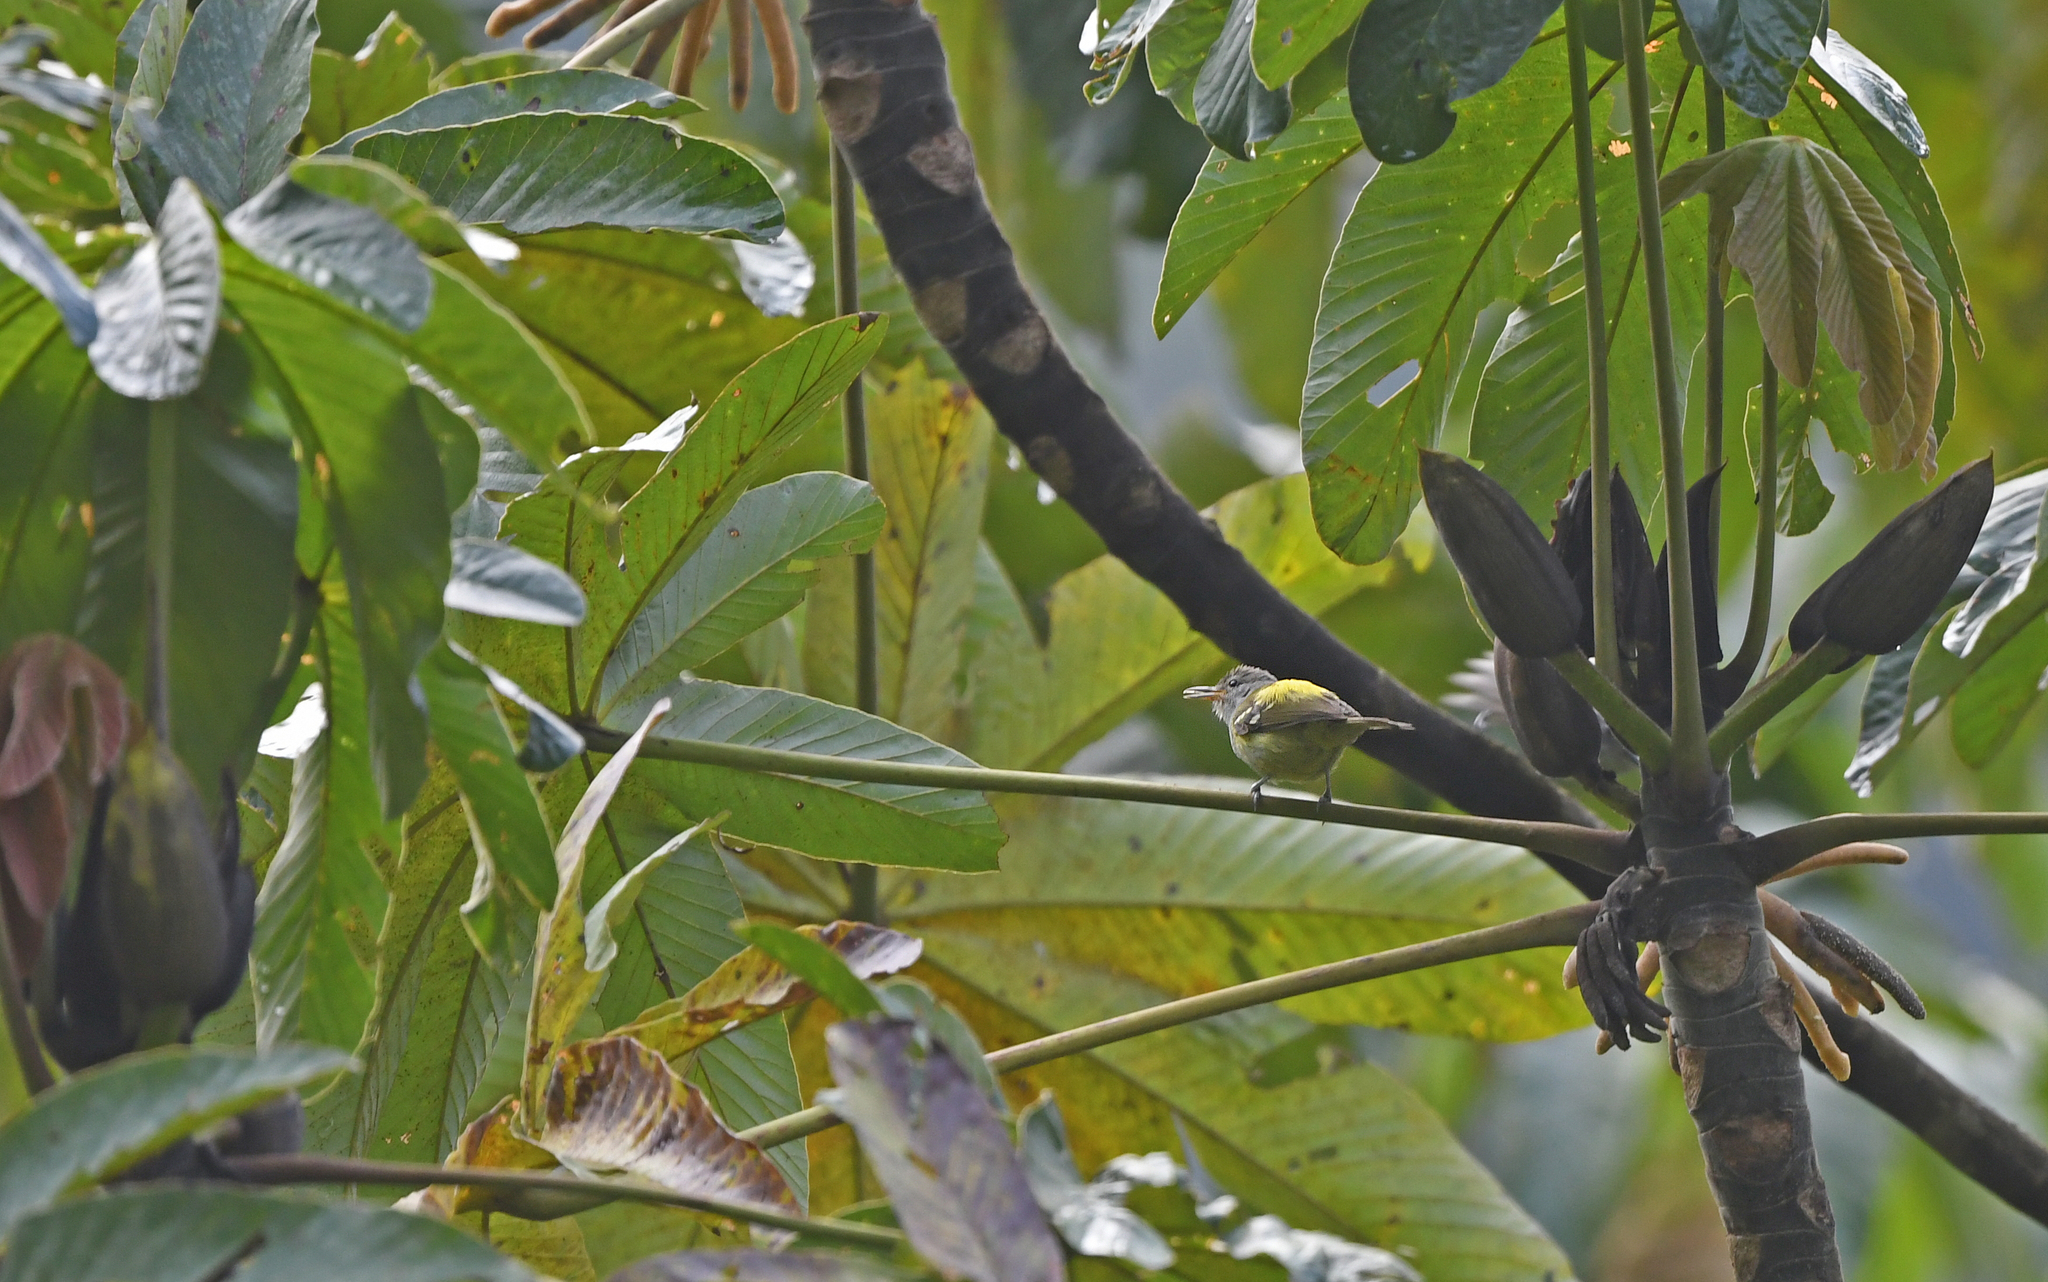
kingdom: Animalia
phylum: Chordata
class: Aves
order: Passeriformes
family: Thamnophilidae
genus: Terenura
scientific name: Terenura sharpei
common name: Yellow-rumped antwren
